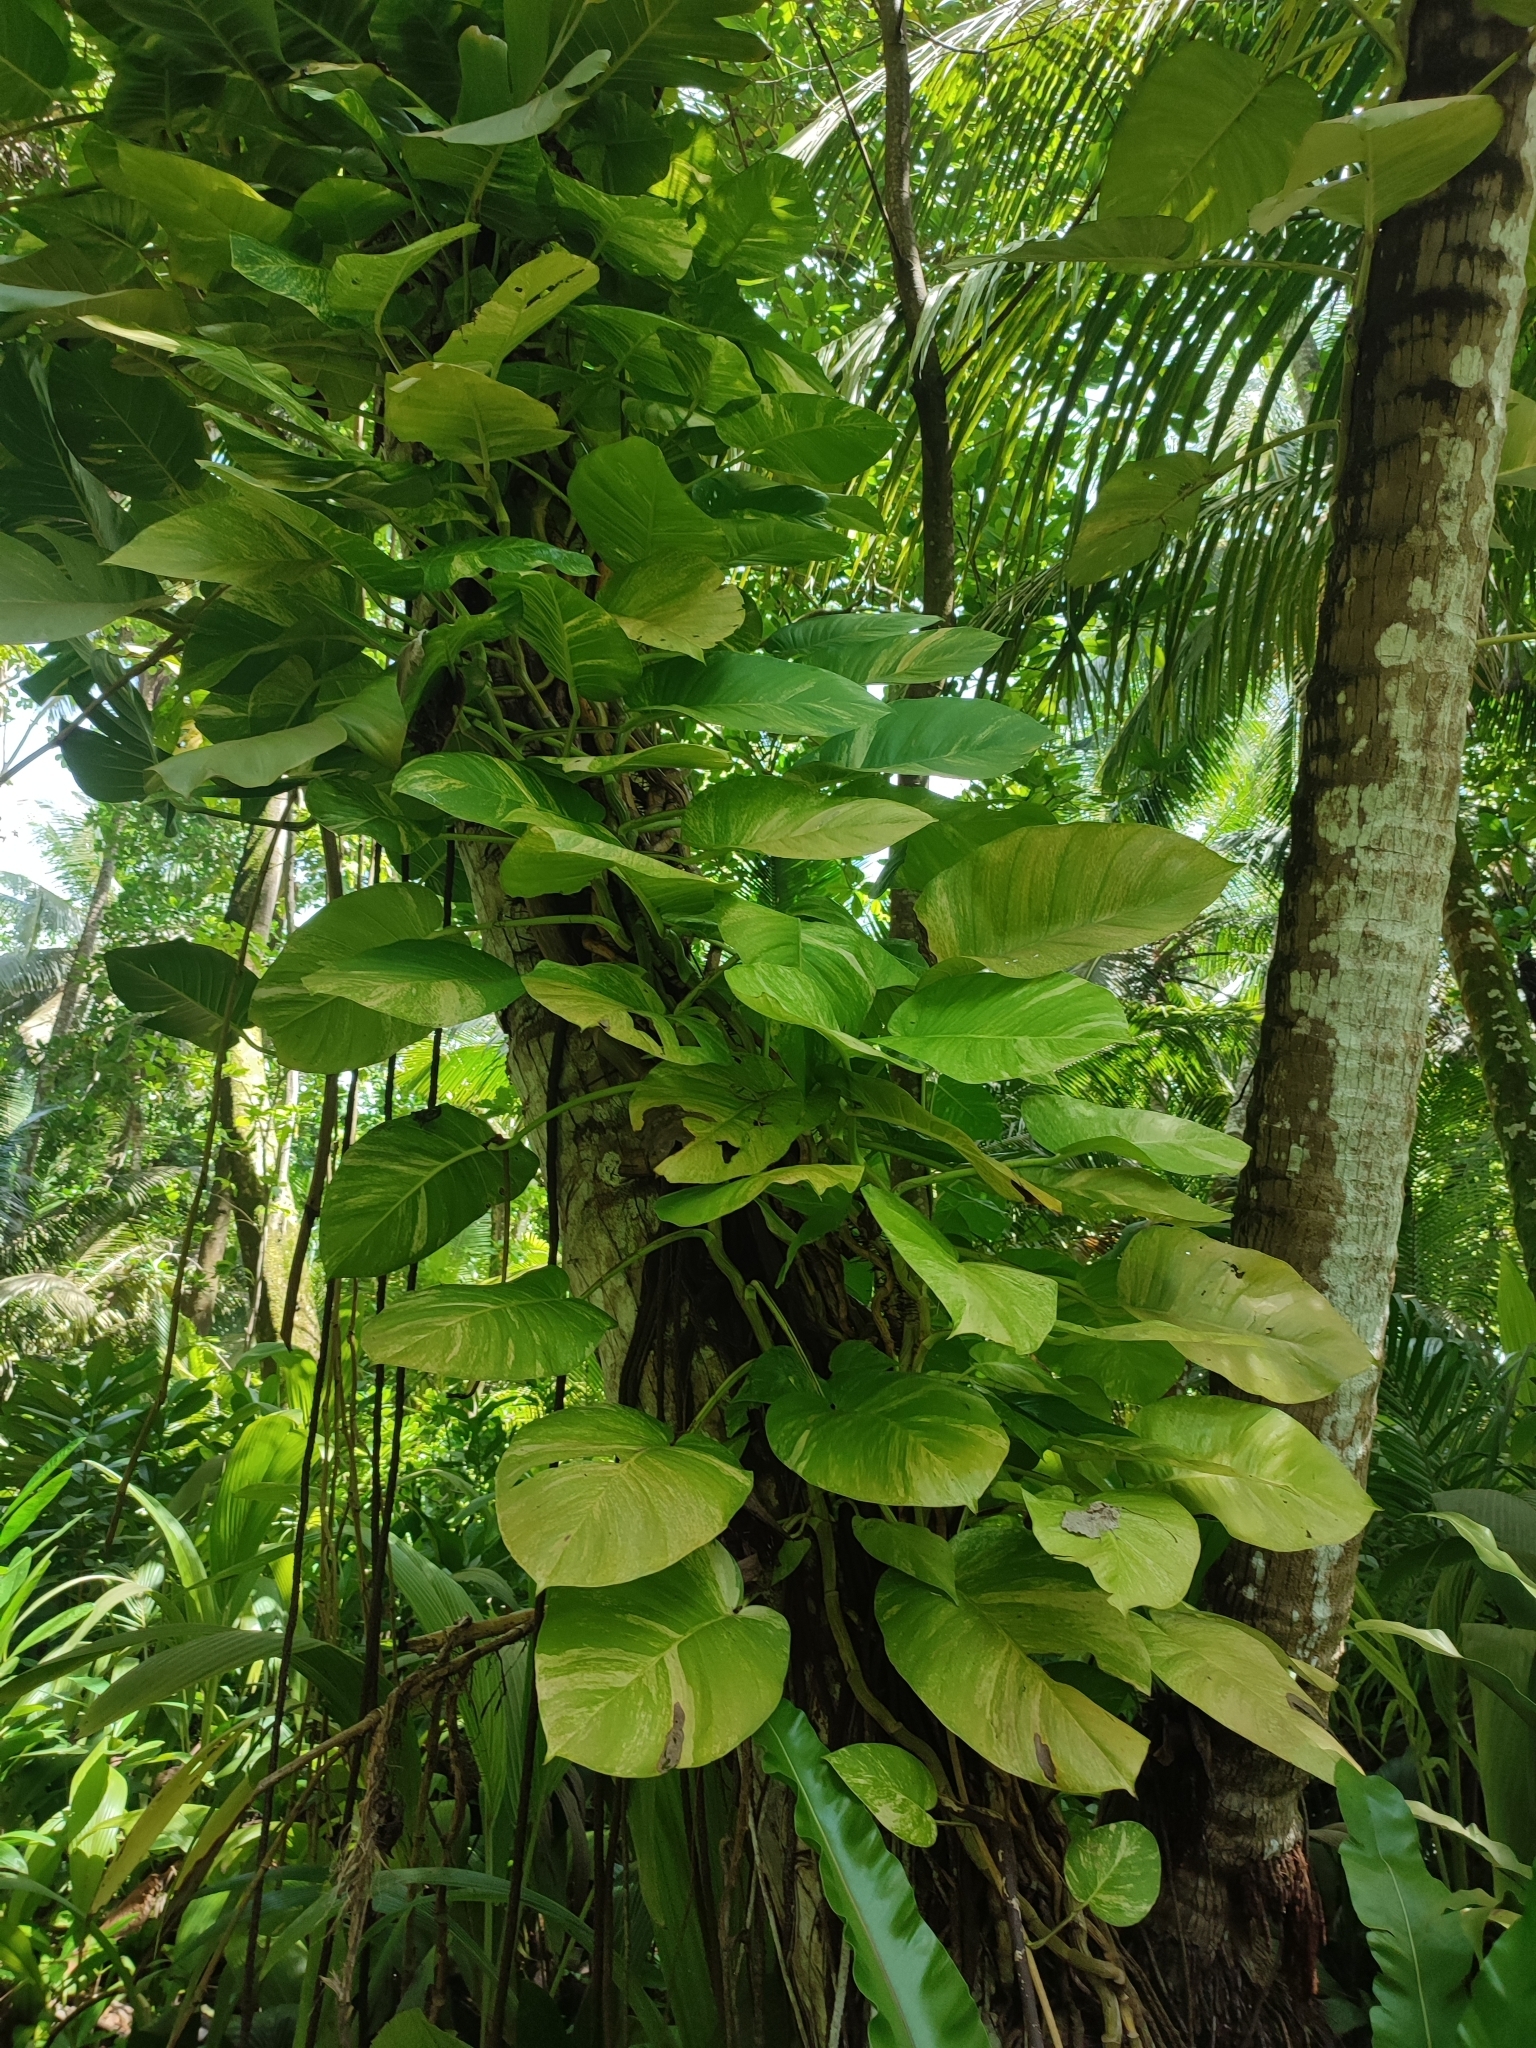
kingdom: Plantae
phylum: Tracheophyta
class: Liliopsida
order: Alismatales
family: Araceae
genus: Epipremnum
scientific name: Epipremnum aureum
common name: Golden hunter's-robe
